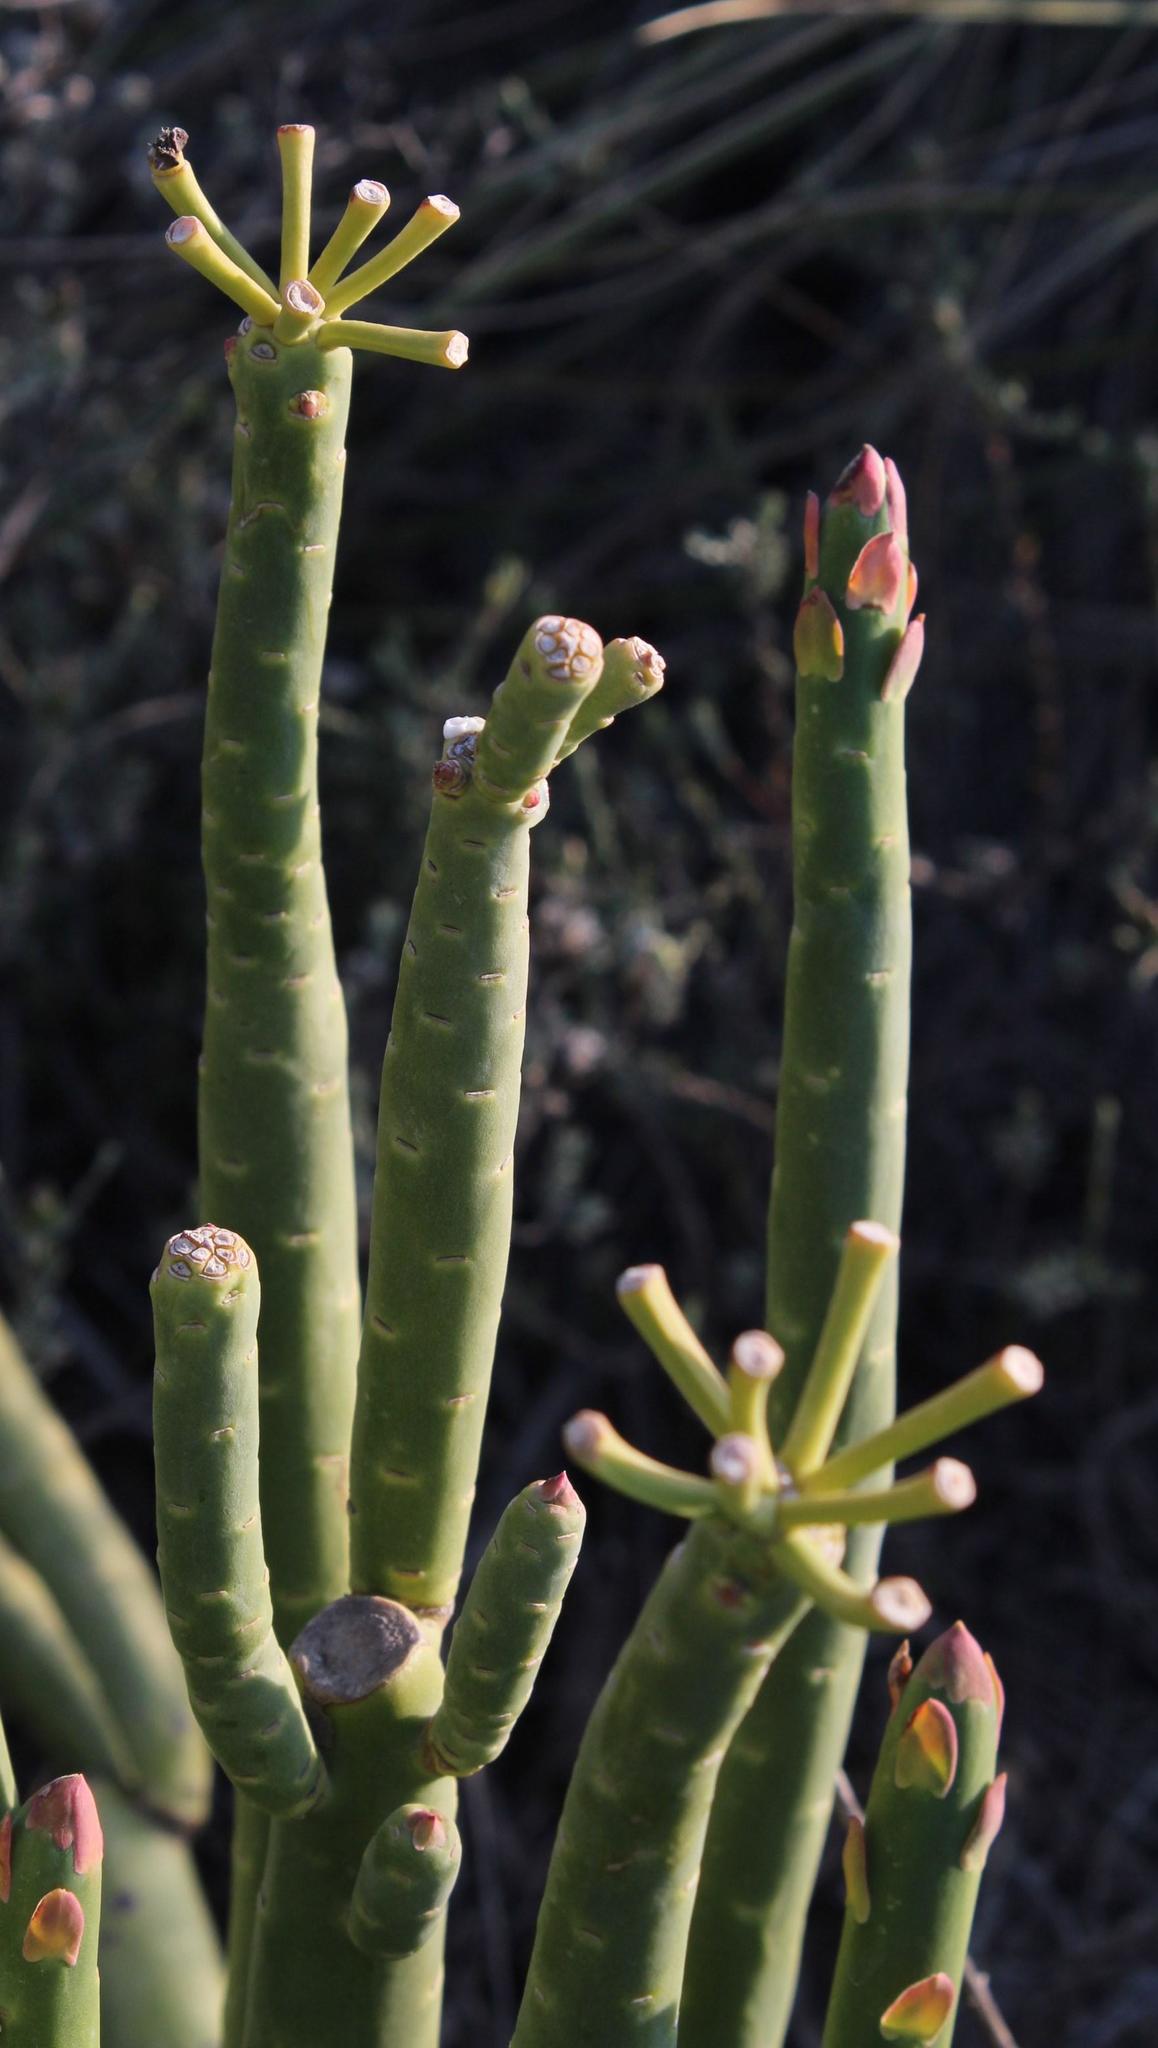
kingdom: Plantae
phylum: Tracheophyta
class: Magnoliopsida
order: Malpighiales
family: Euphorbiaceae
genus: Euphorbia
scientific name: Euphorbia stolonifera
